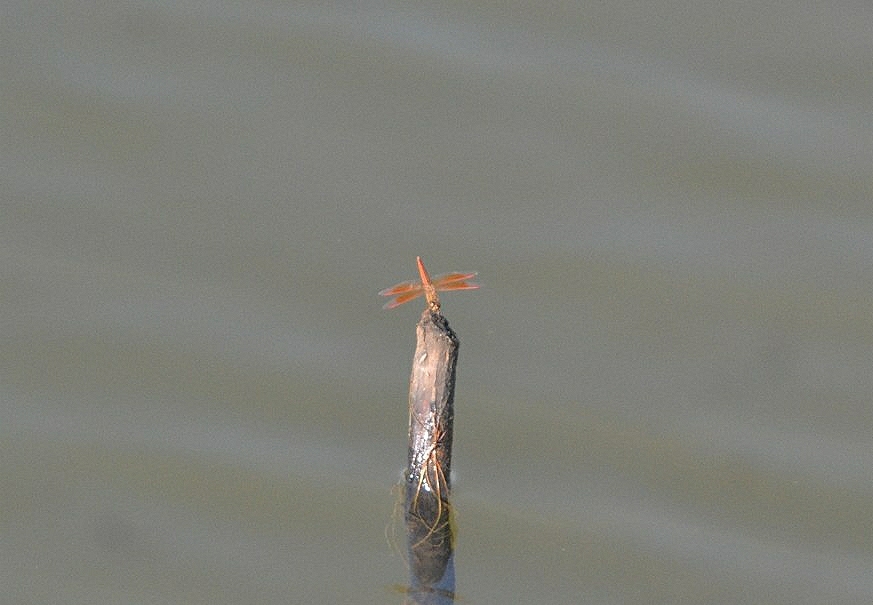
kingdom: Animalia
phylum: Arthropoda
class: Insecta
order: Odonata
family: Libellulidae
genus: Brachythemis
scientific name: Brachythemis contaminata
